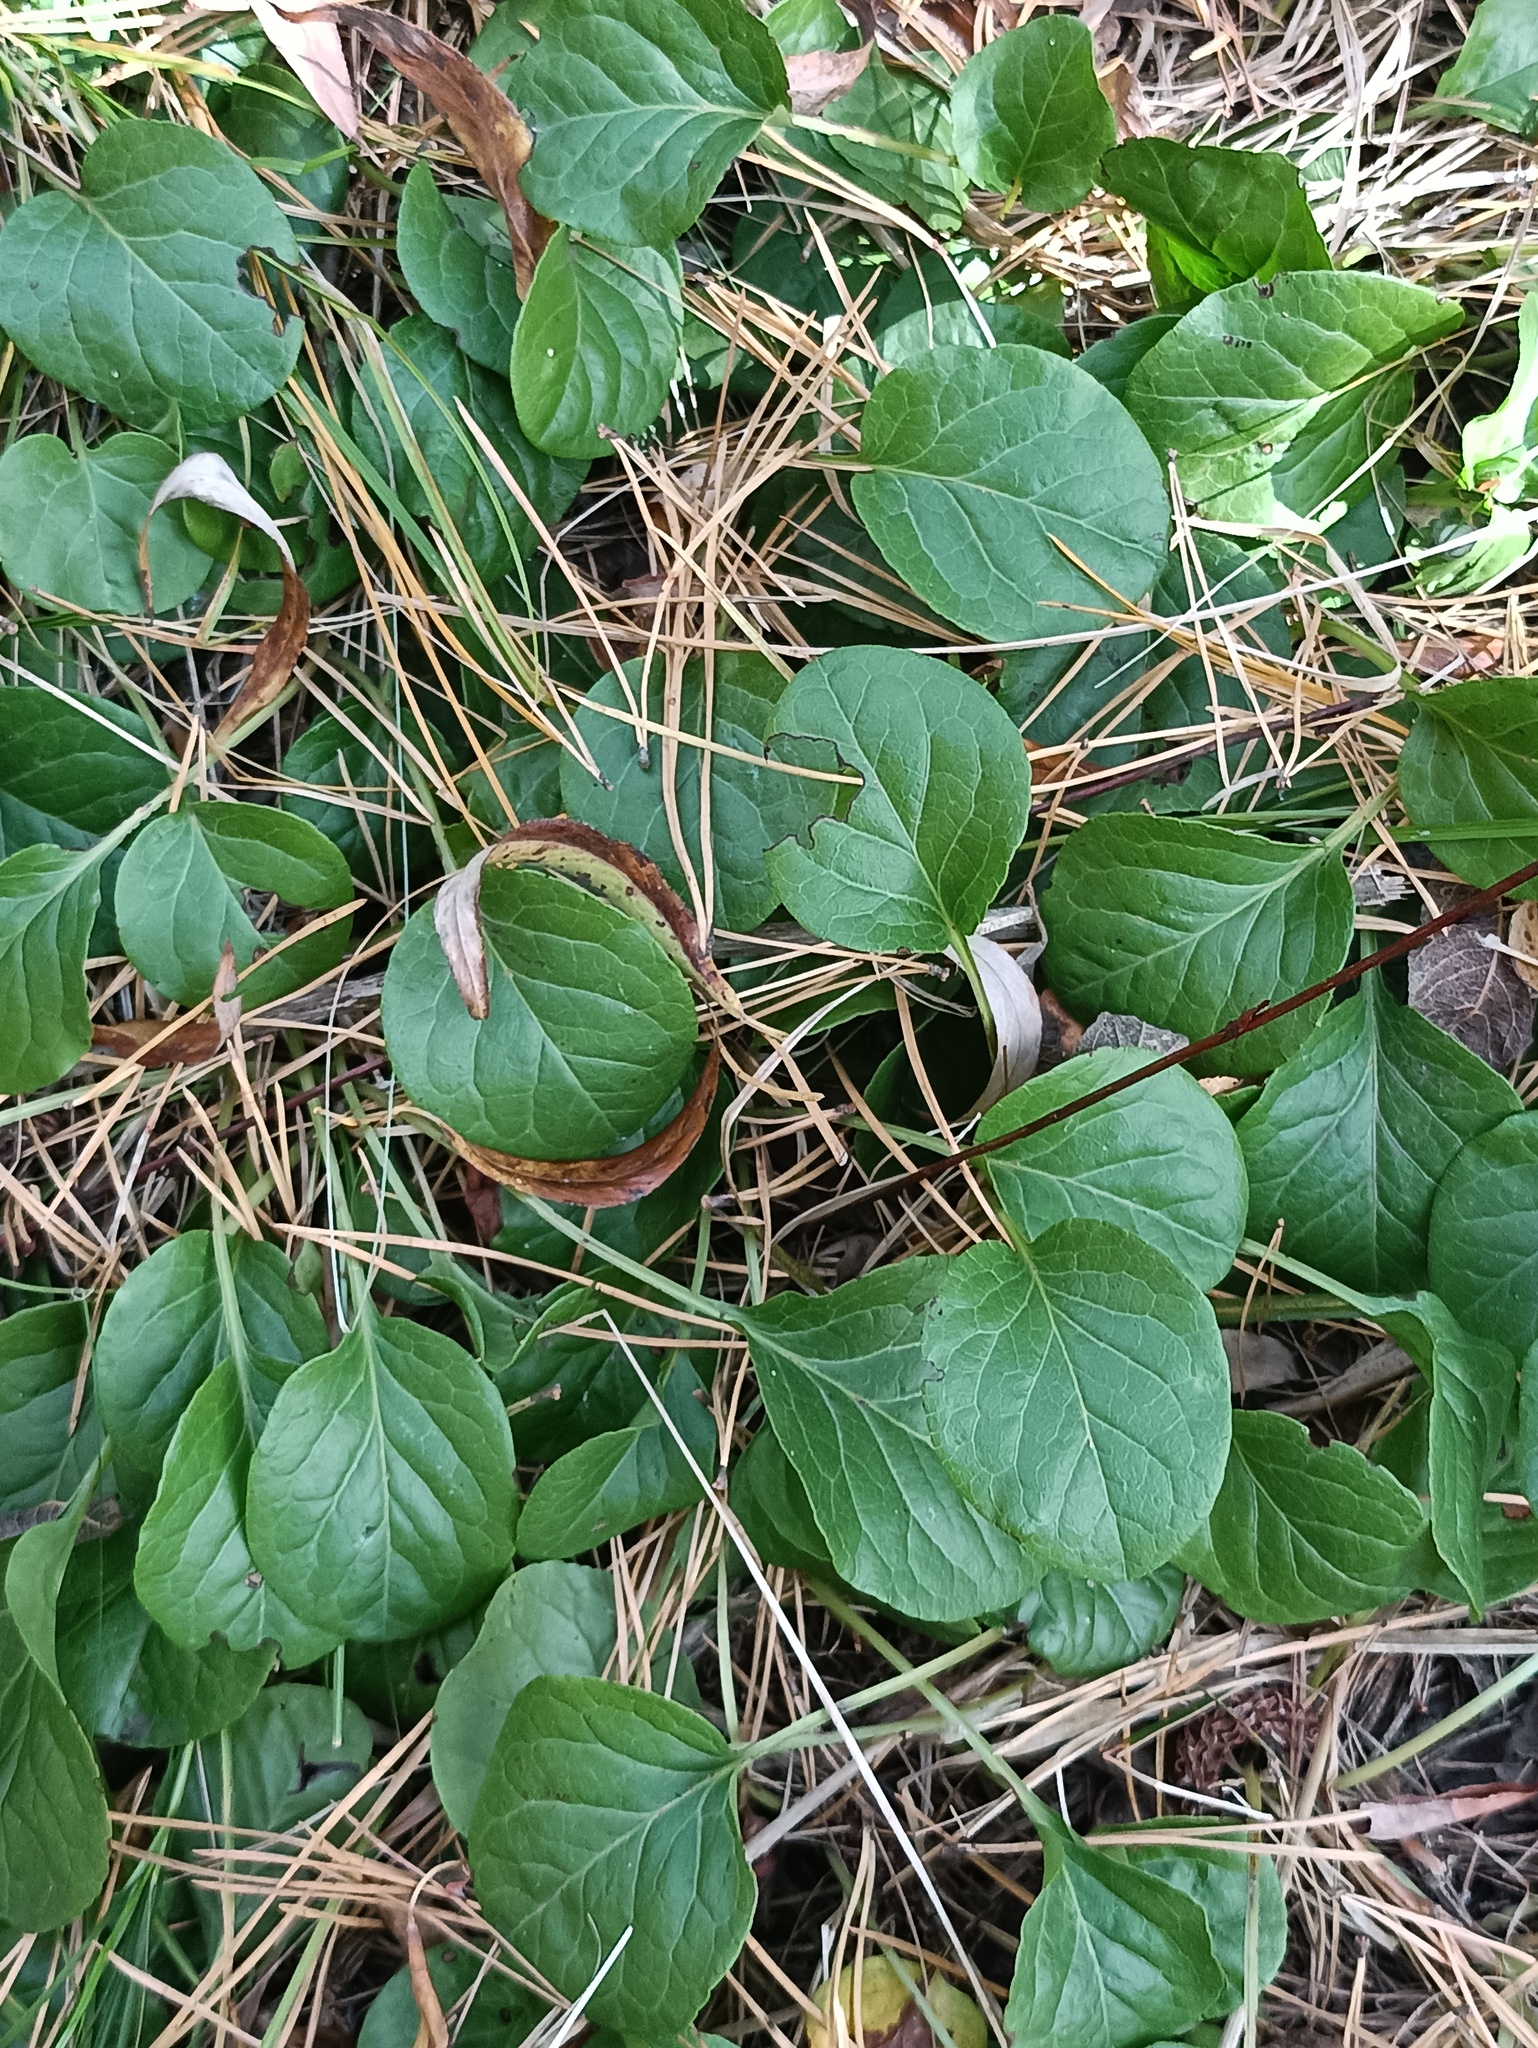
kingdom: Plantae
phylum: Tracheophyta
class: Magnoliopsida
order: Ericales
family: Ericaceae
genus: Pyrola
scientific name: Pyrola rotundifolia
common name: Round-leaved wintergreen
